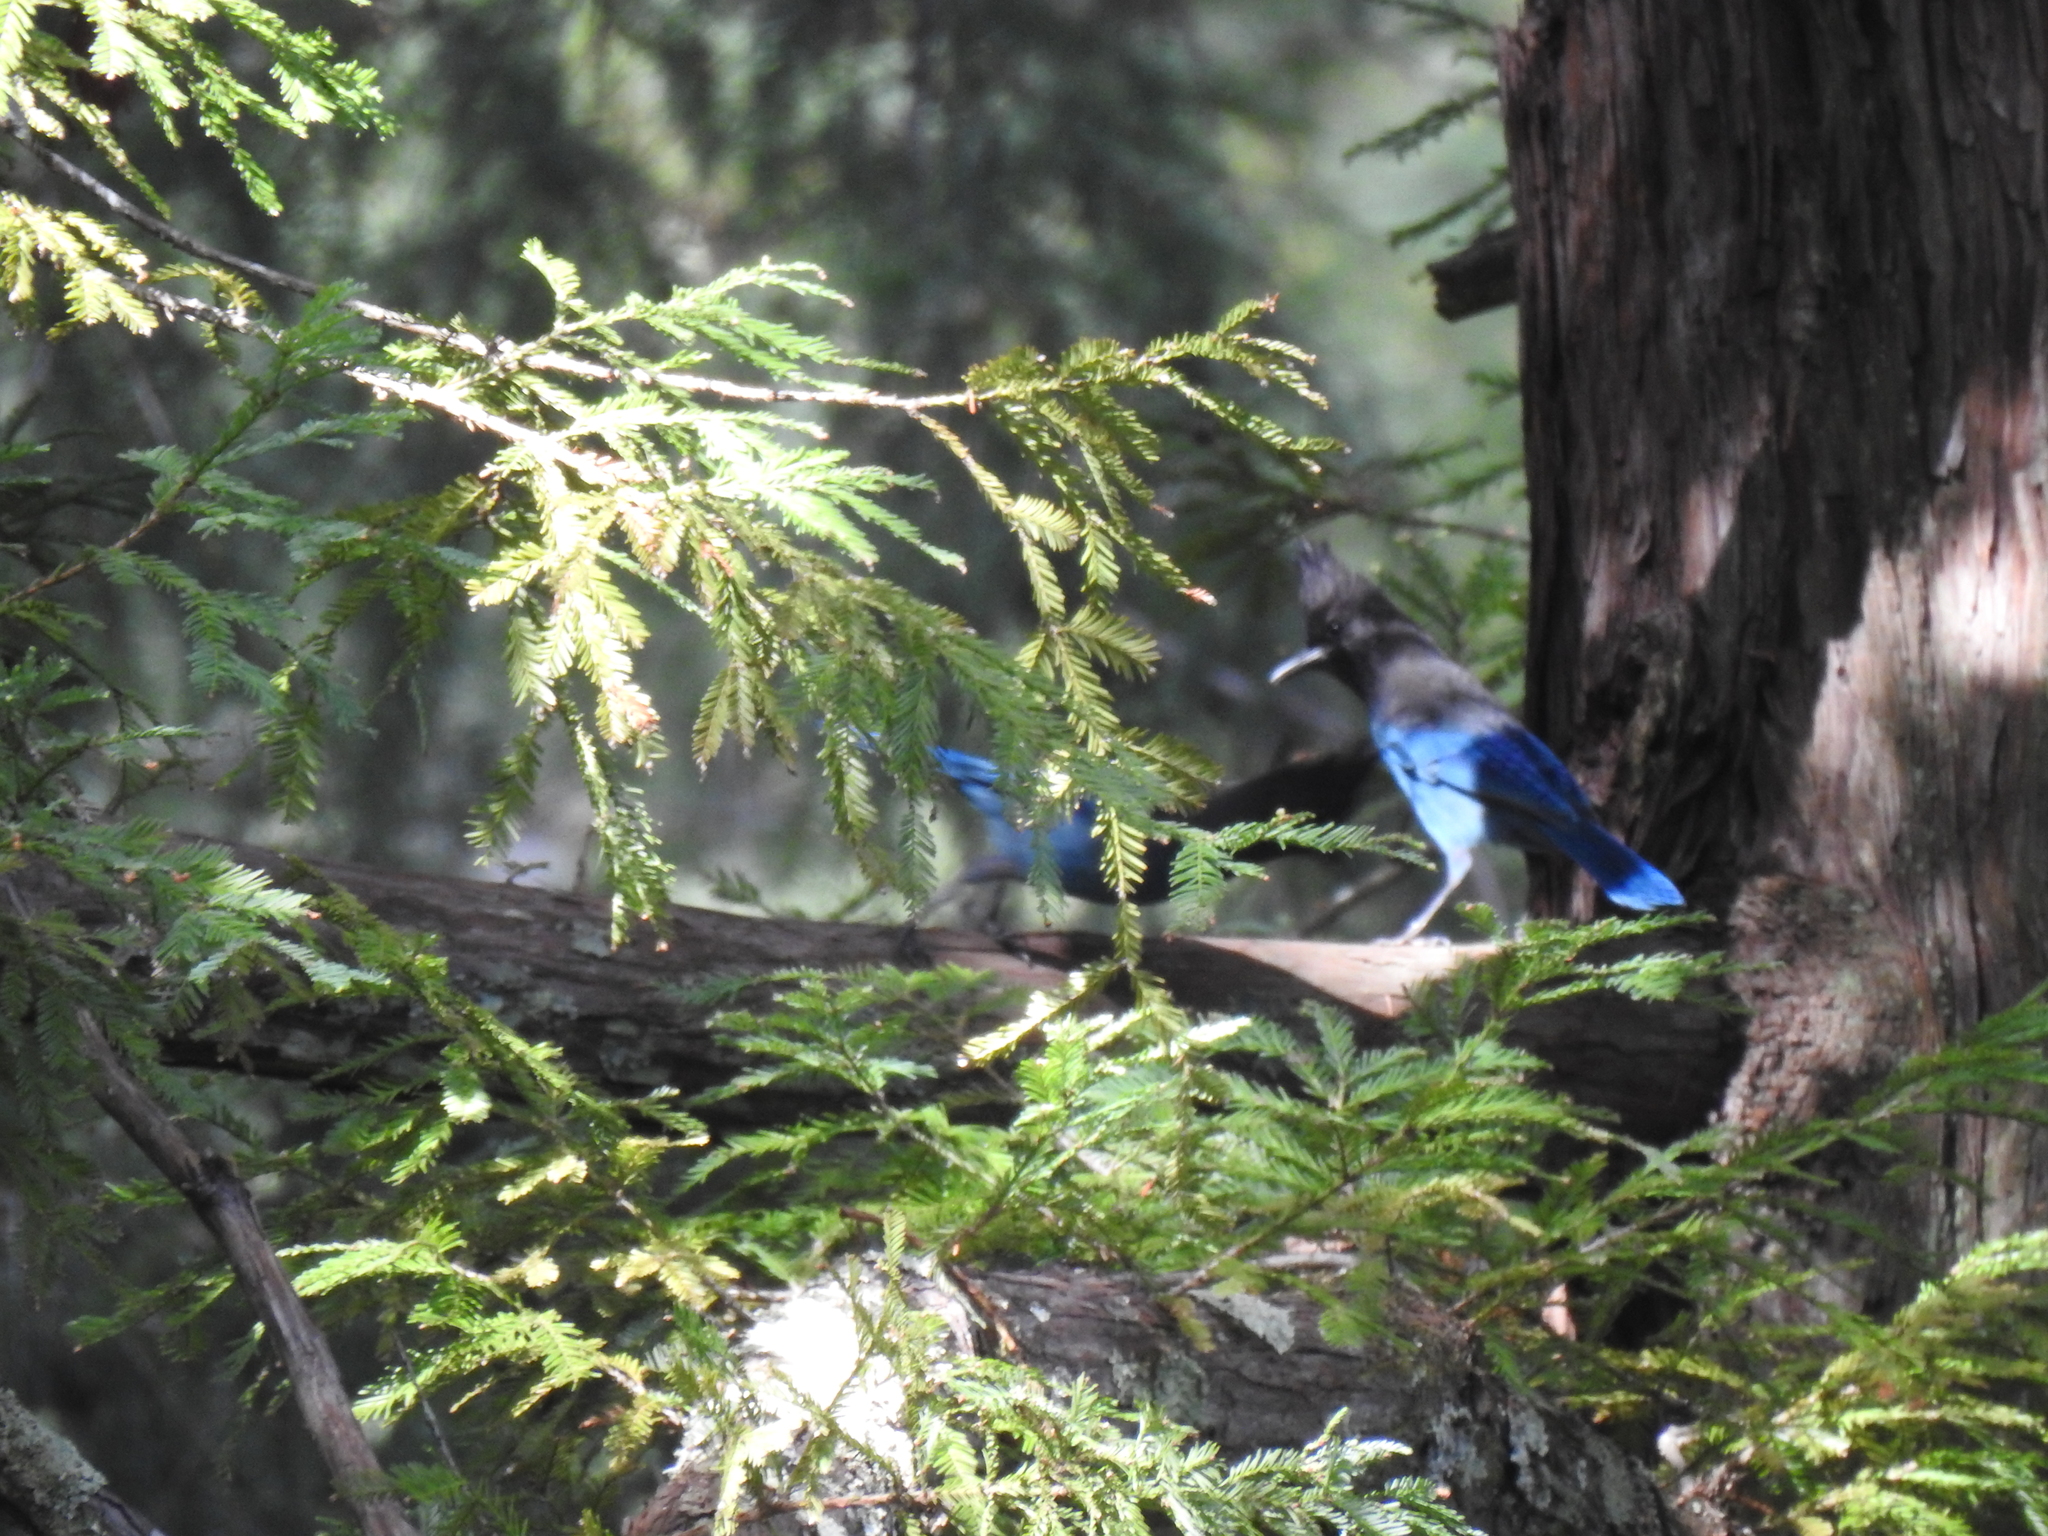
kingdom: Animalia
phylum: Chordata
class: Aves
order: Passeriformes
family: Corvidae
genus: Cyanocitta
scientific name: Cyanocitta stelleri
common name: Steller's jay
